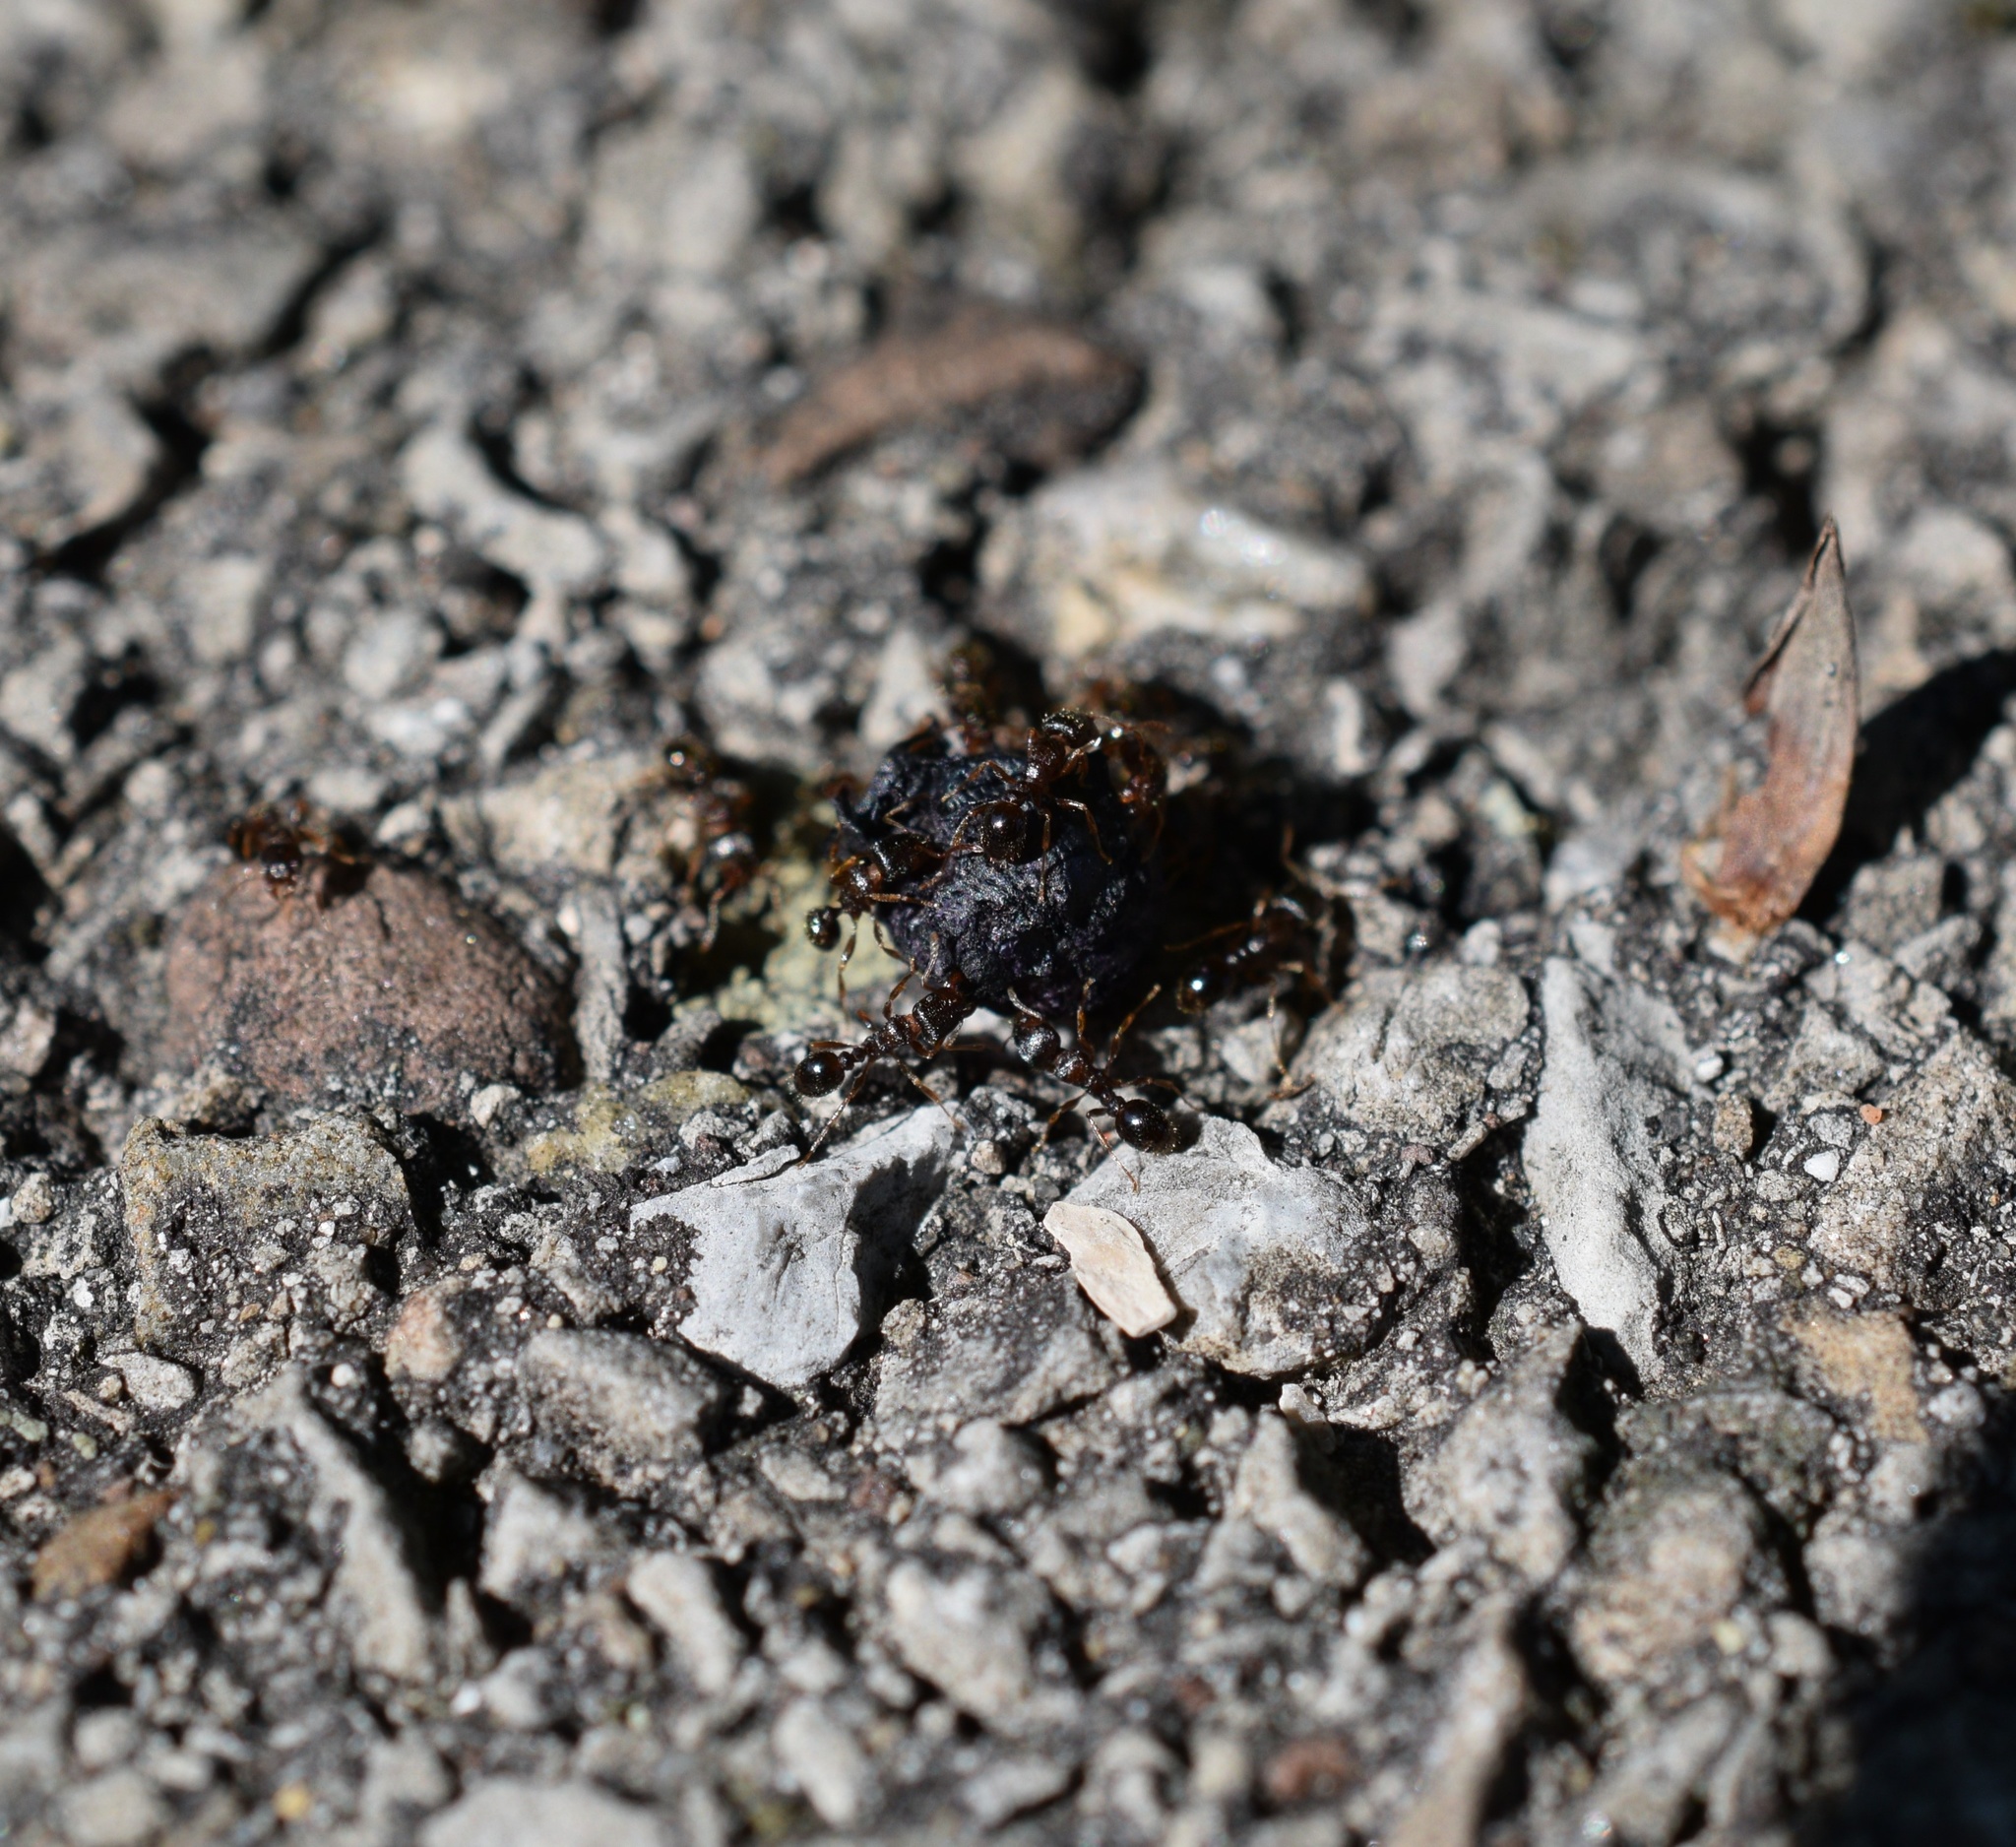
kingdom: Animalia
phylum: Arthropoda
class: Insecta
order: Hymenoptera
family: Formicidae
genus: Tetramorium
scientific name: Tetramorium immigrans
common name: Pavement ant
